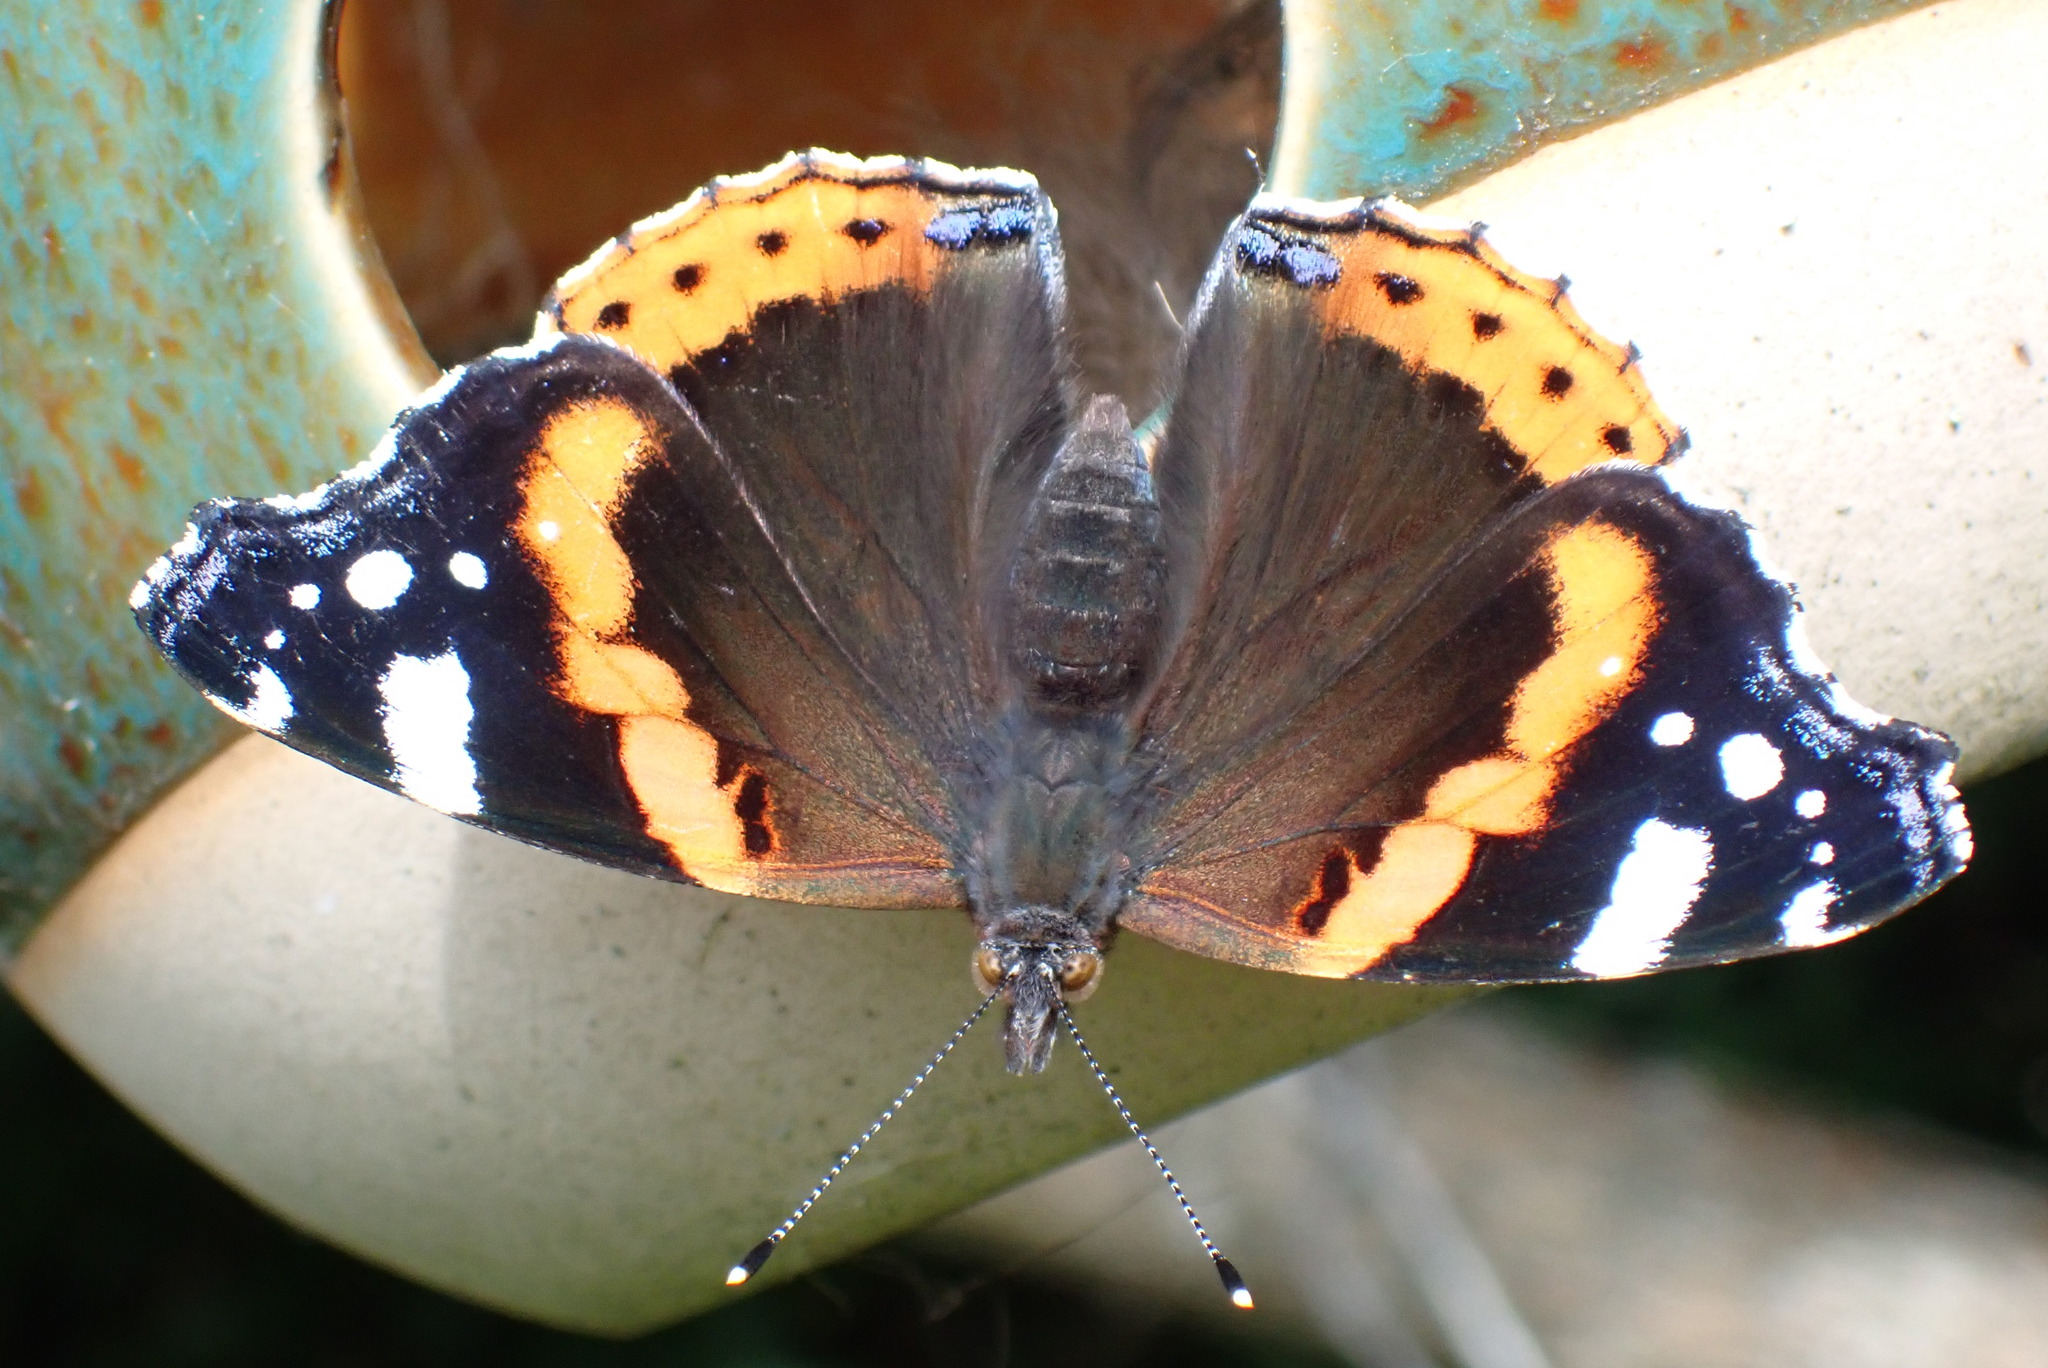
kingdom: Animalia
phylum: Arthropoda
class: Insecta
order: Lepidoptera
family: Nymphalidae
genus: Vanessa
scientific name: Vanessa atalanta
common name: Red admiral
